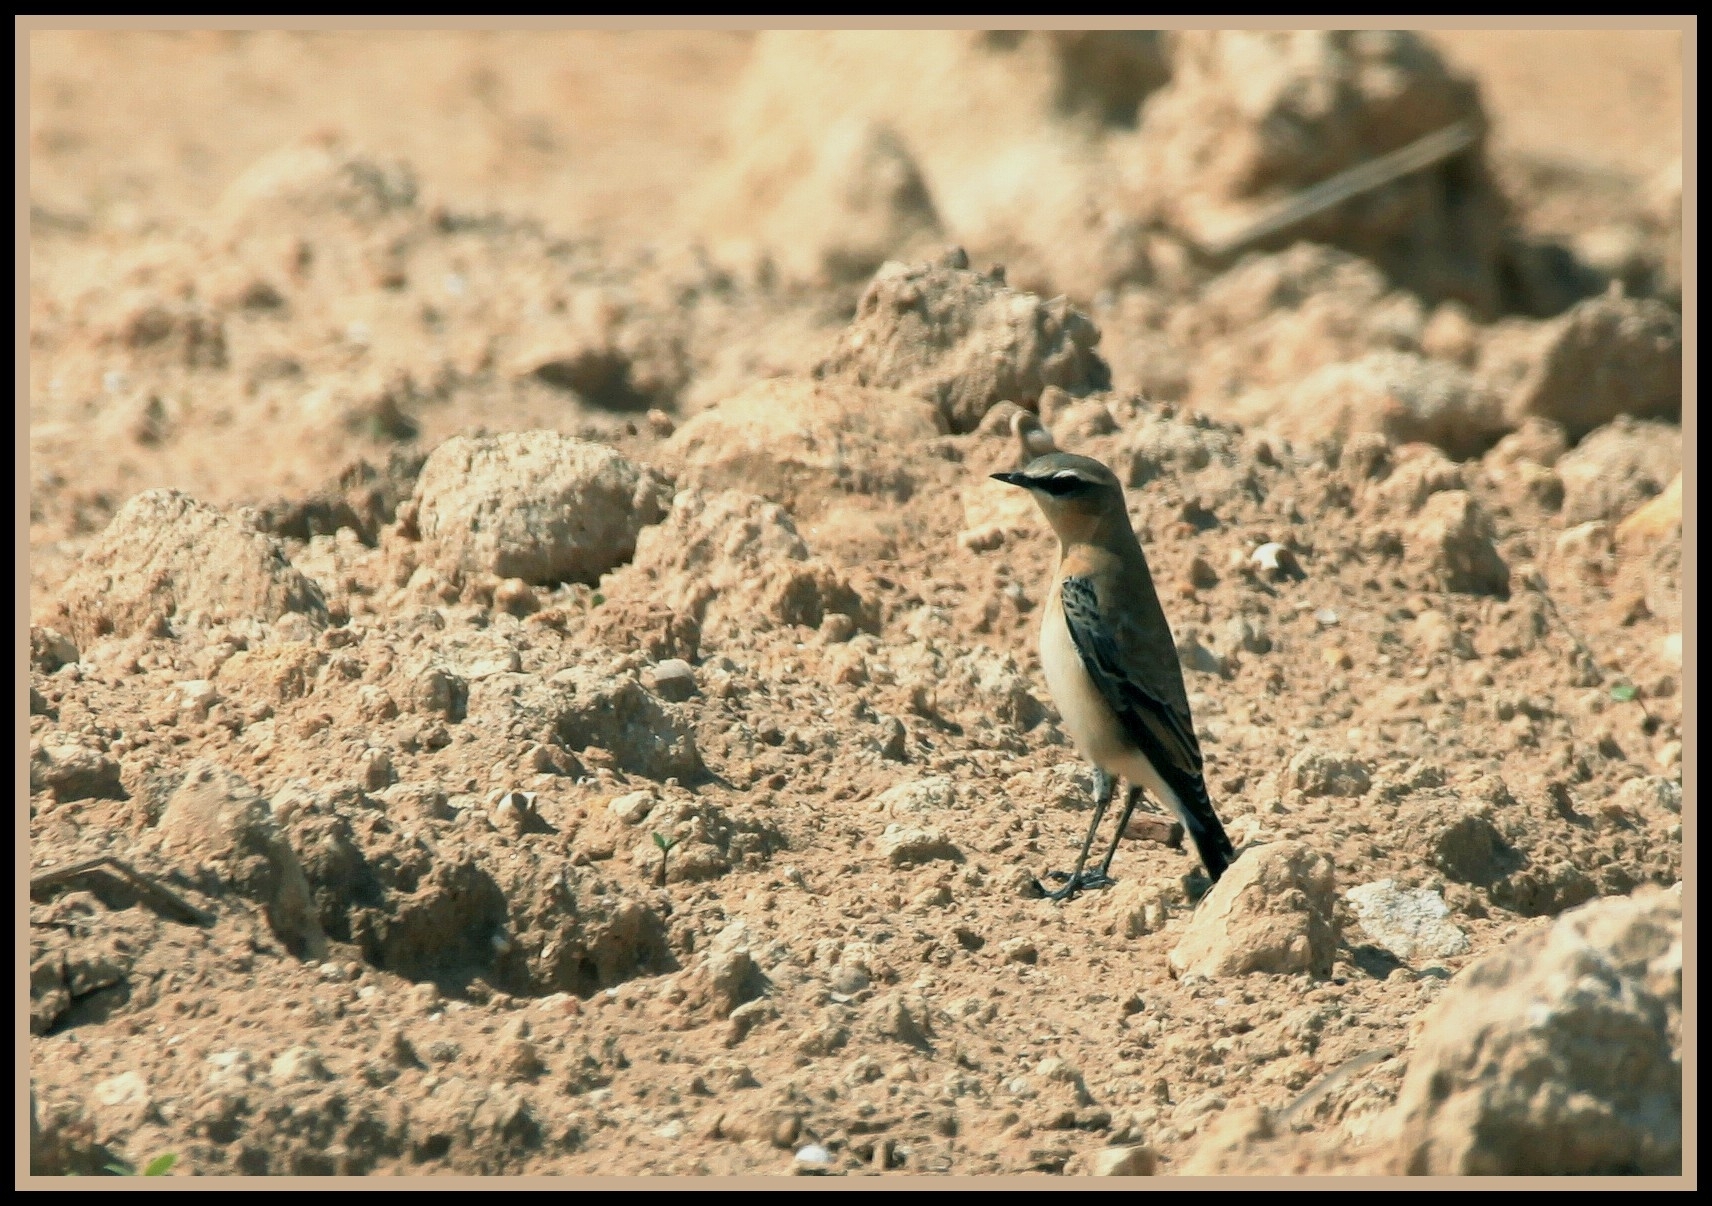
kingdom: Animalia
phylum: Chordata
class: Aves
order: Passeriformes
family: Muscicapidae
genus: Oenanthe
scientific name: Oenanthe oenanthe
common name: Northern wheatear
